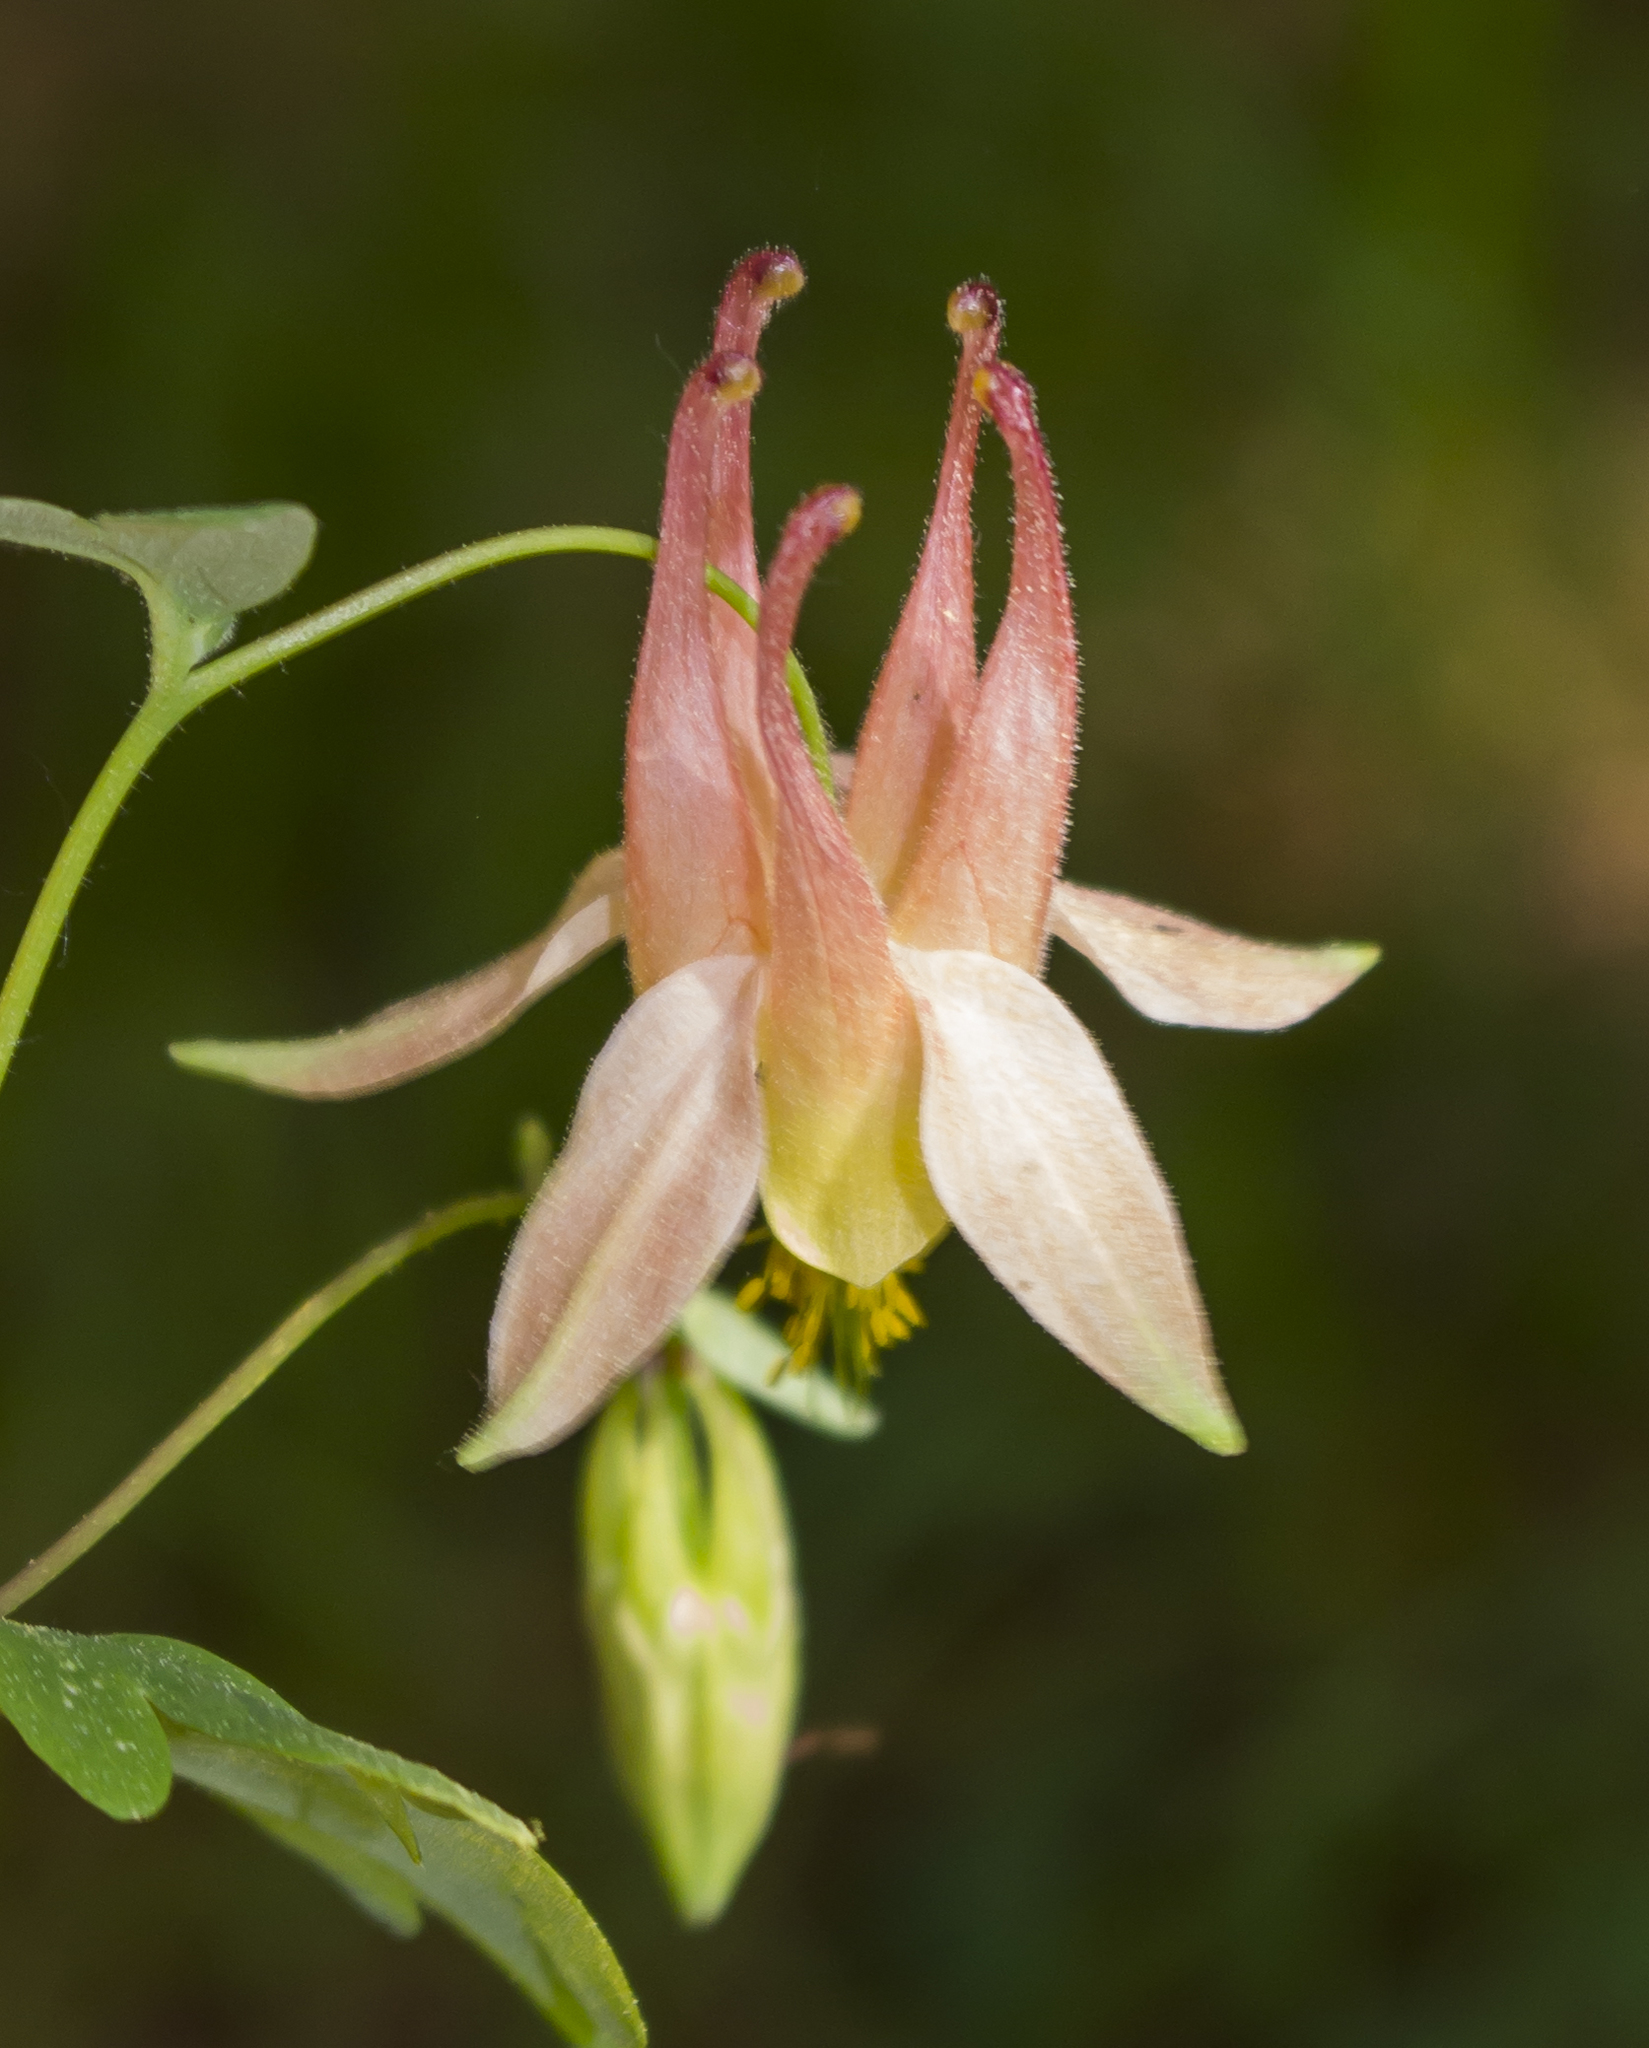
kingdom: Plantae
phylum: Tracheophyta
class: Magnoliopsida
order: Ranunculales
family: Ranunculaceae
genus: Aquilegia
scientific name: Aquilegia canadensis
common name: American columbine
